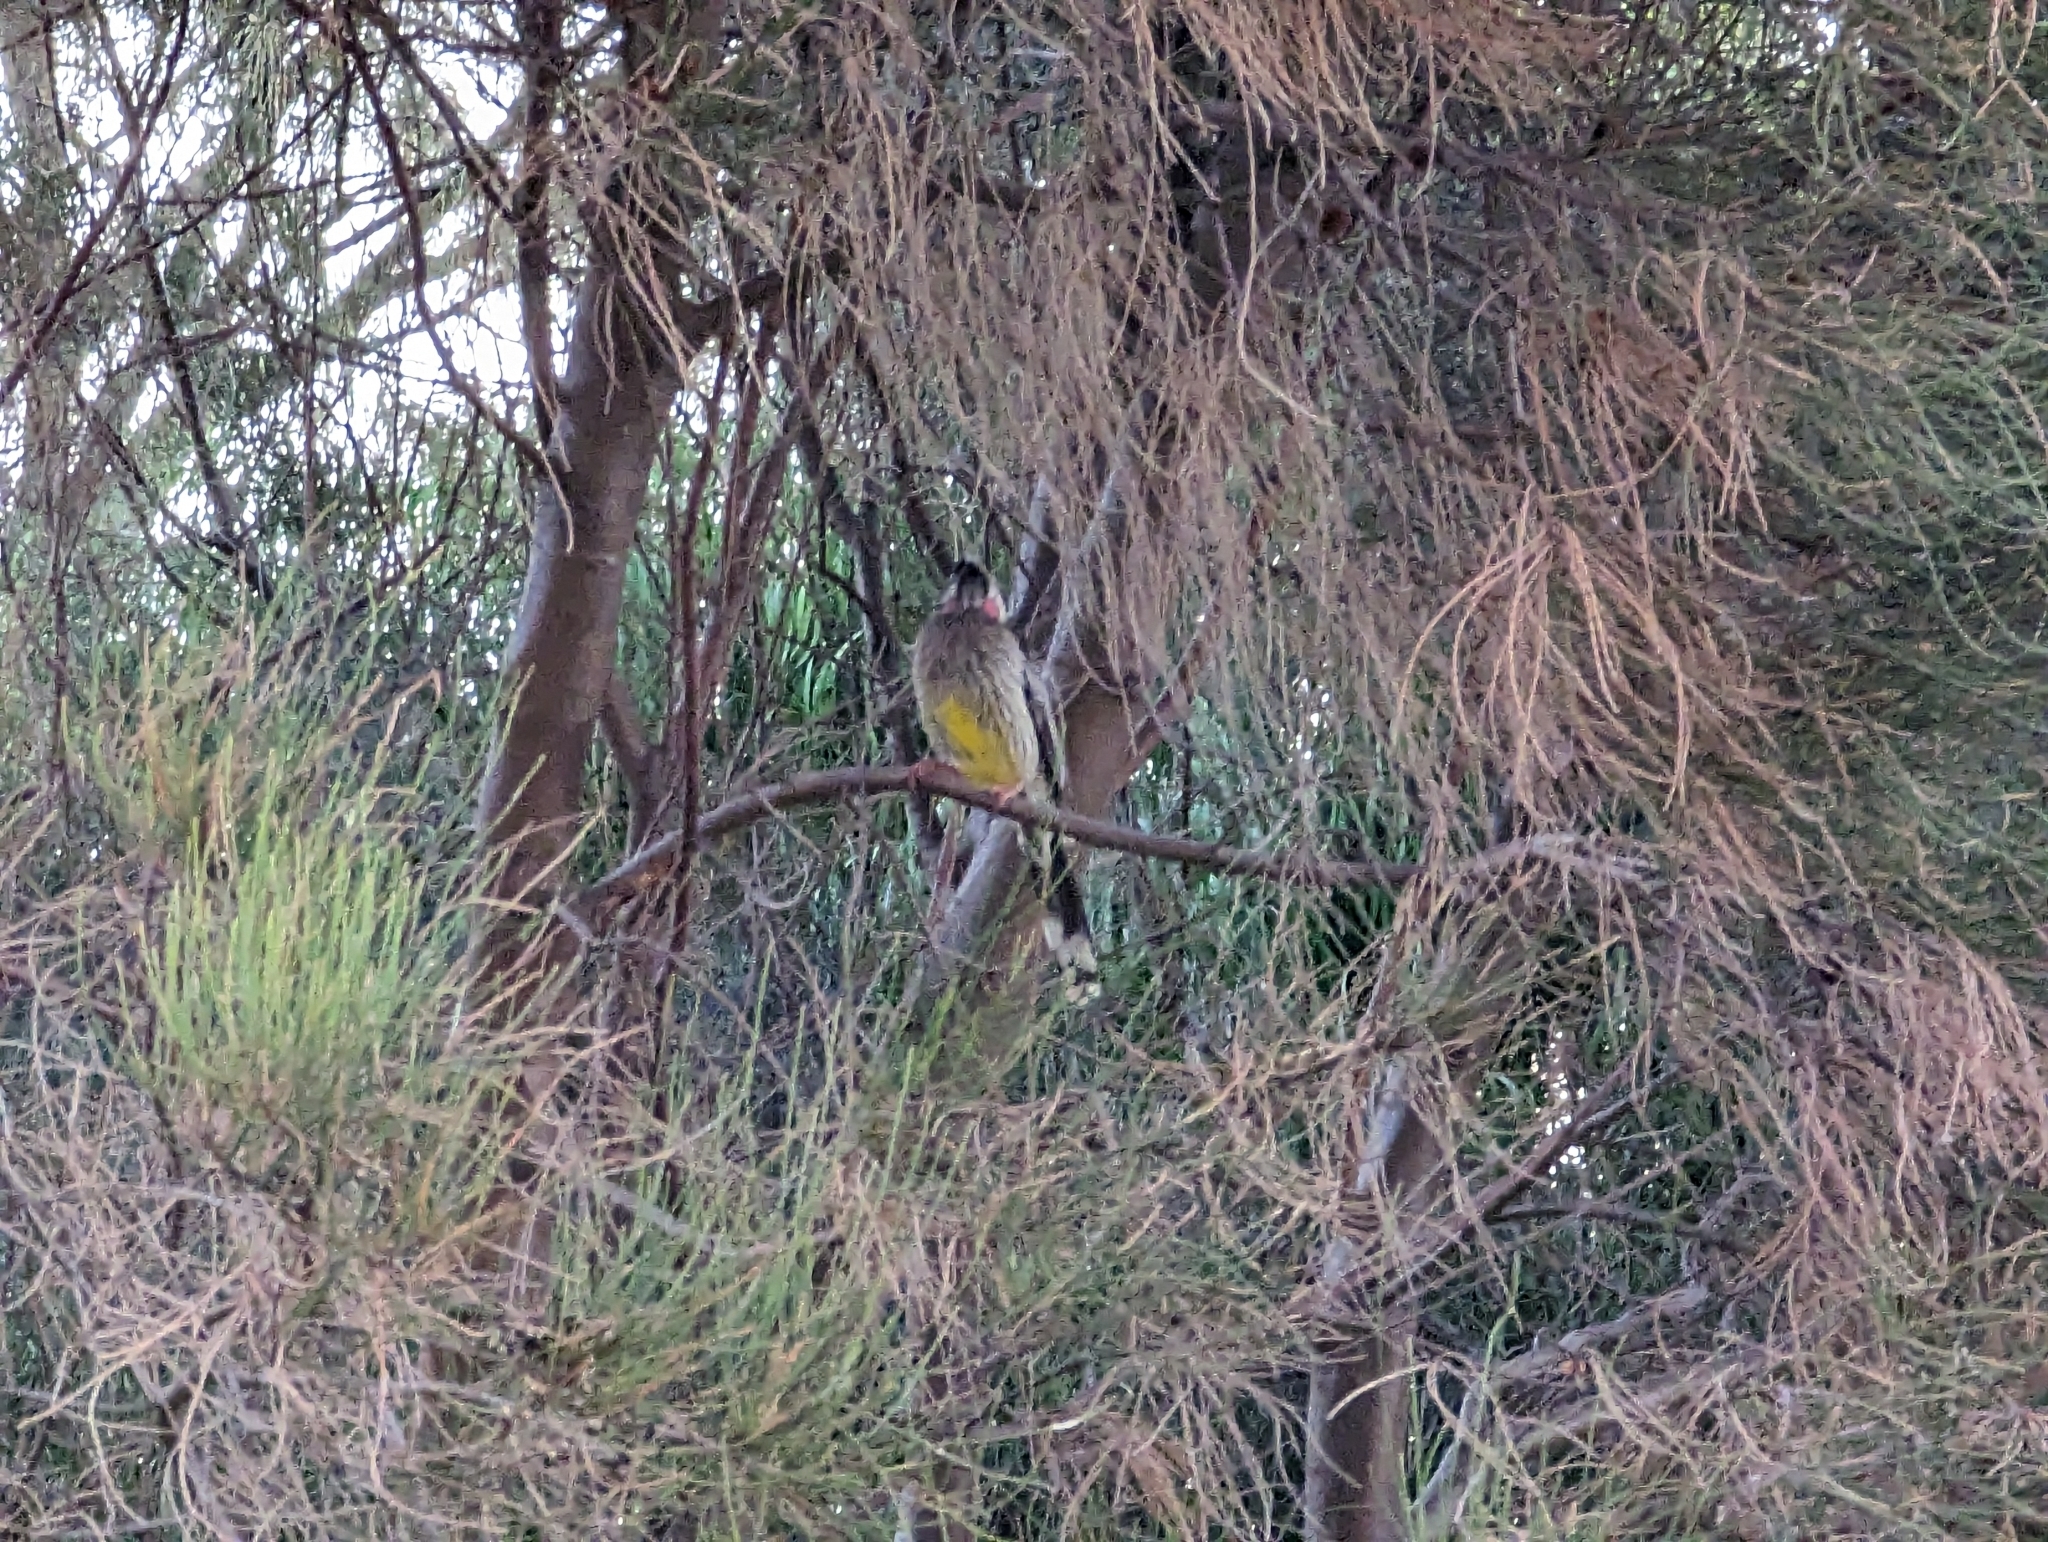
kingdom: Animalia
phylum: Chordata
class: Aves
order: Passeriformes
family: Meliphagidae
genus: Anthochaera
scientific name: Anthochaera carunculata
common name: Red wattlebird
